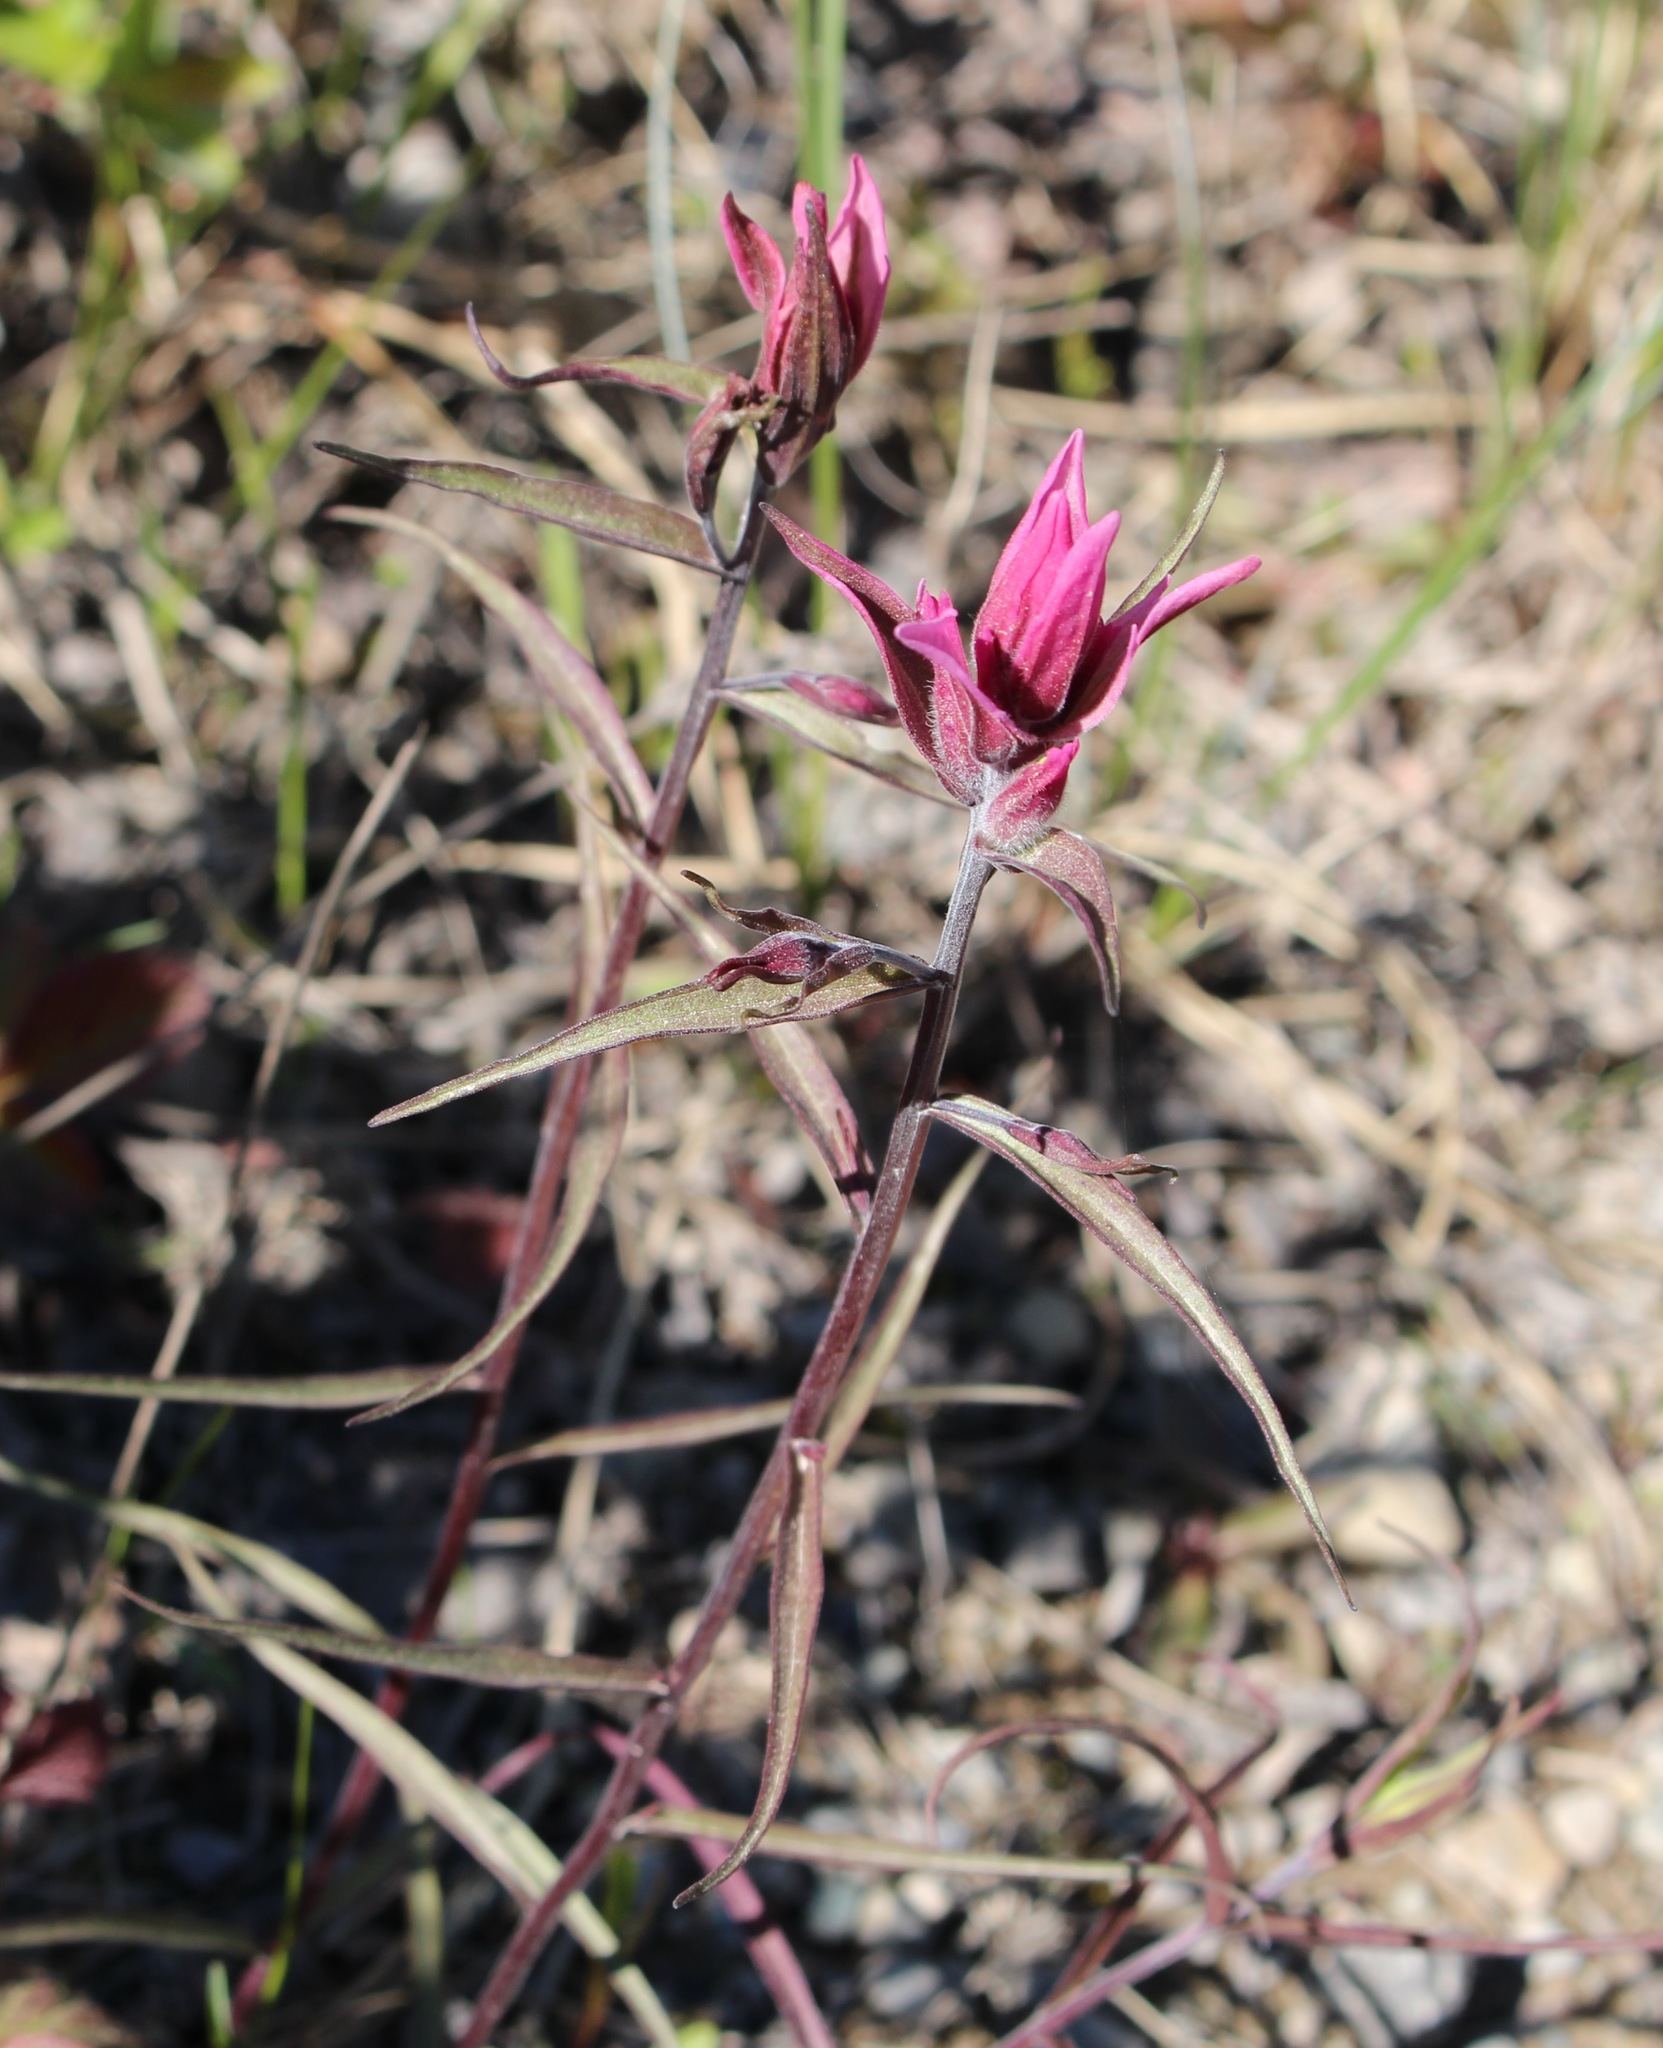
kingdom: Plantae
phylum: Tracheophyta
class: Magnoliopsida
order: Lamiales
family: Orobanchaceae
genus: Castilleja
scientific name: Castilleja raupii
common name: Raup's paintbrush
